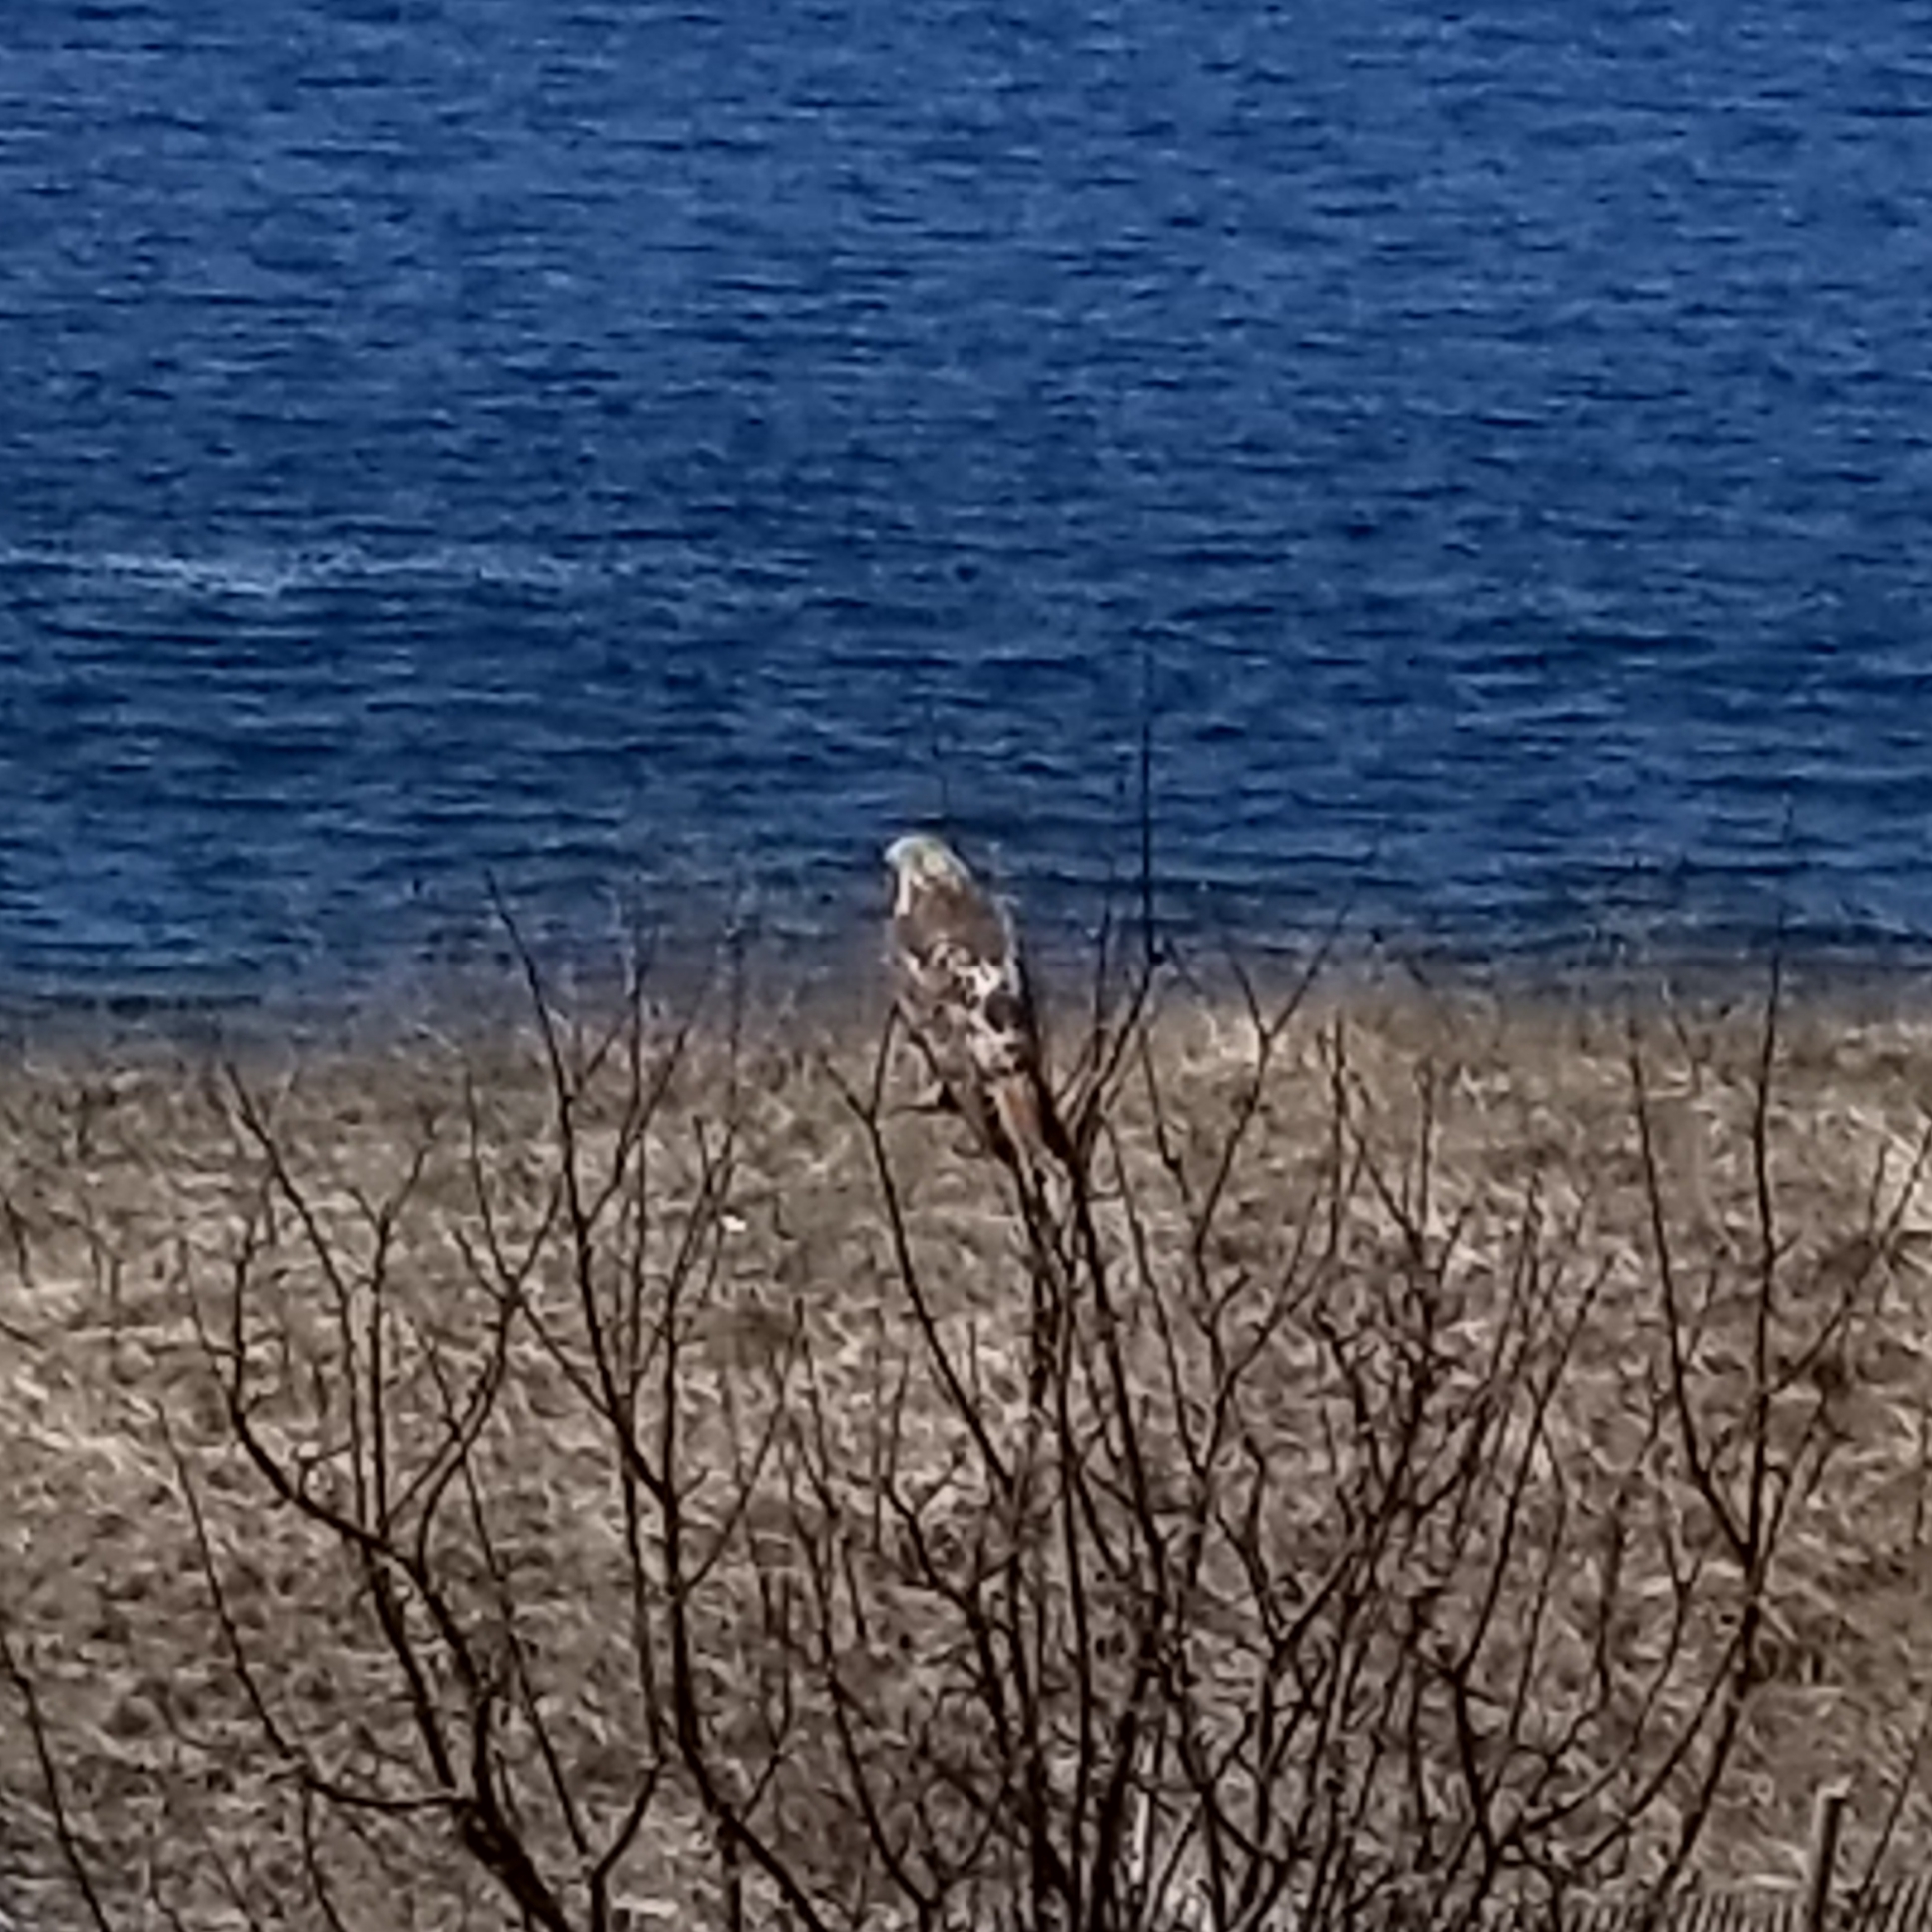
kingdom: Animalia
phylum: Chordata
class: Aves
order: Accipitriformes
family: Accipitridae
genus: Buteo
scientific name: Buteo jamaicensis
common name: Red-tailed hawk
